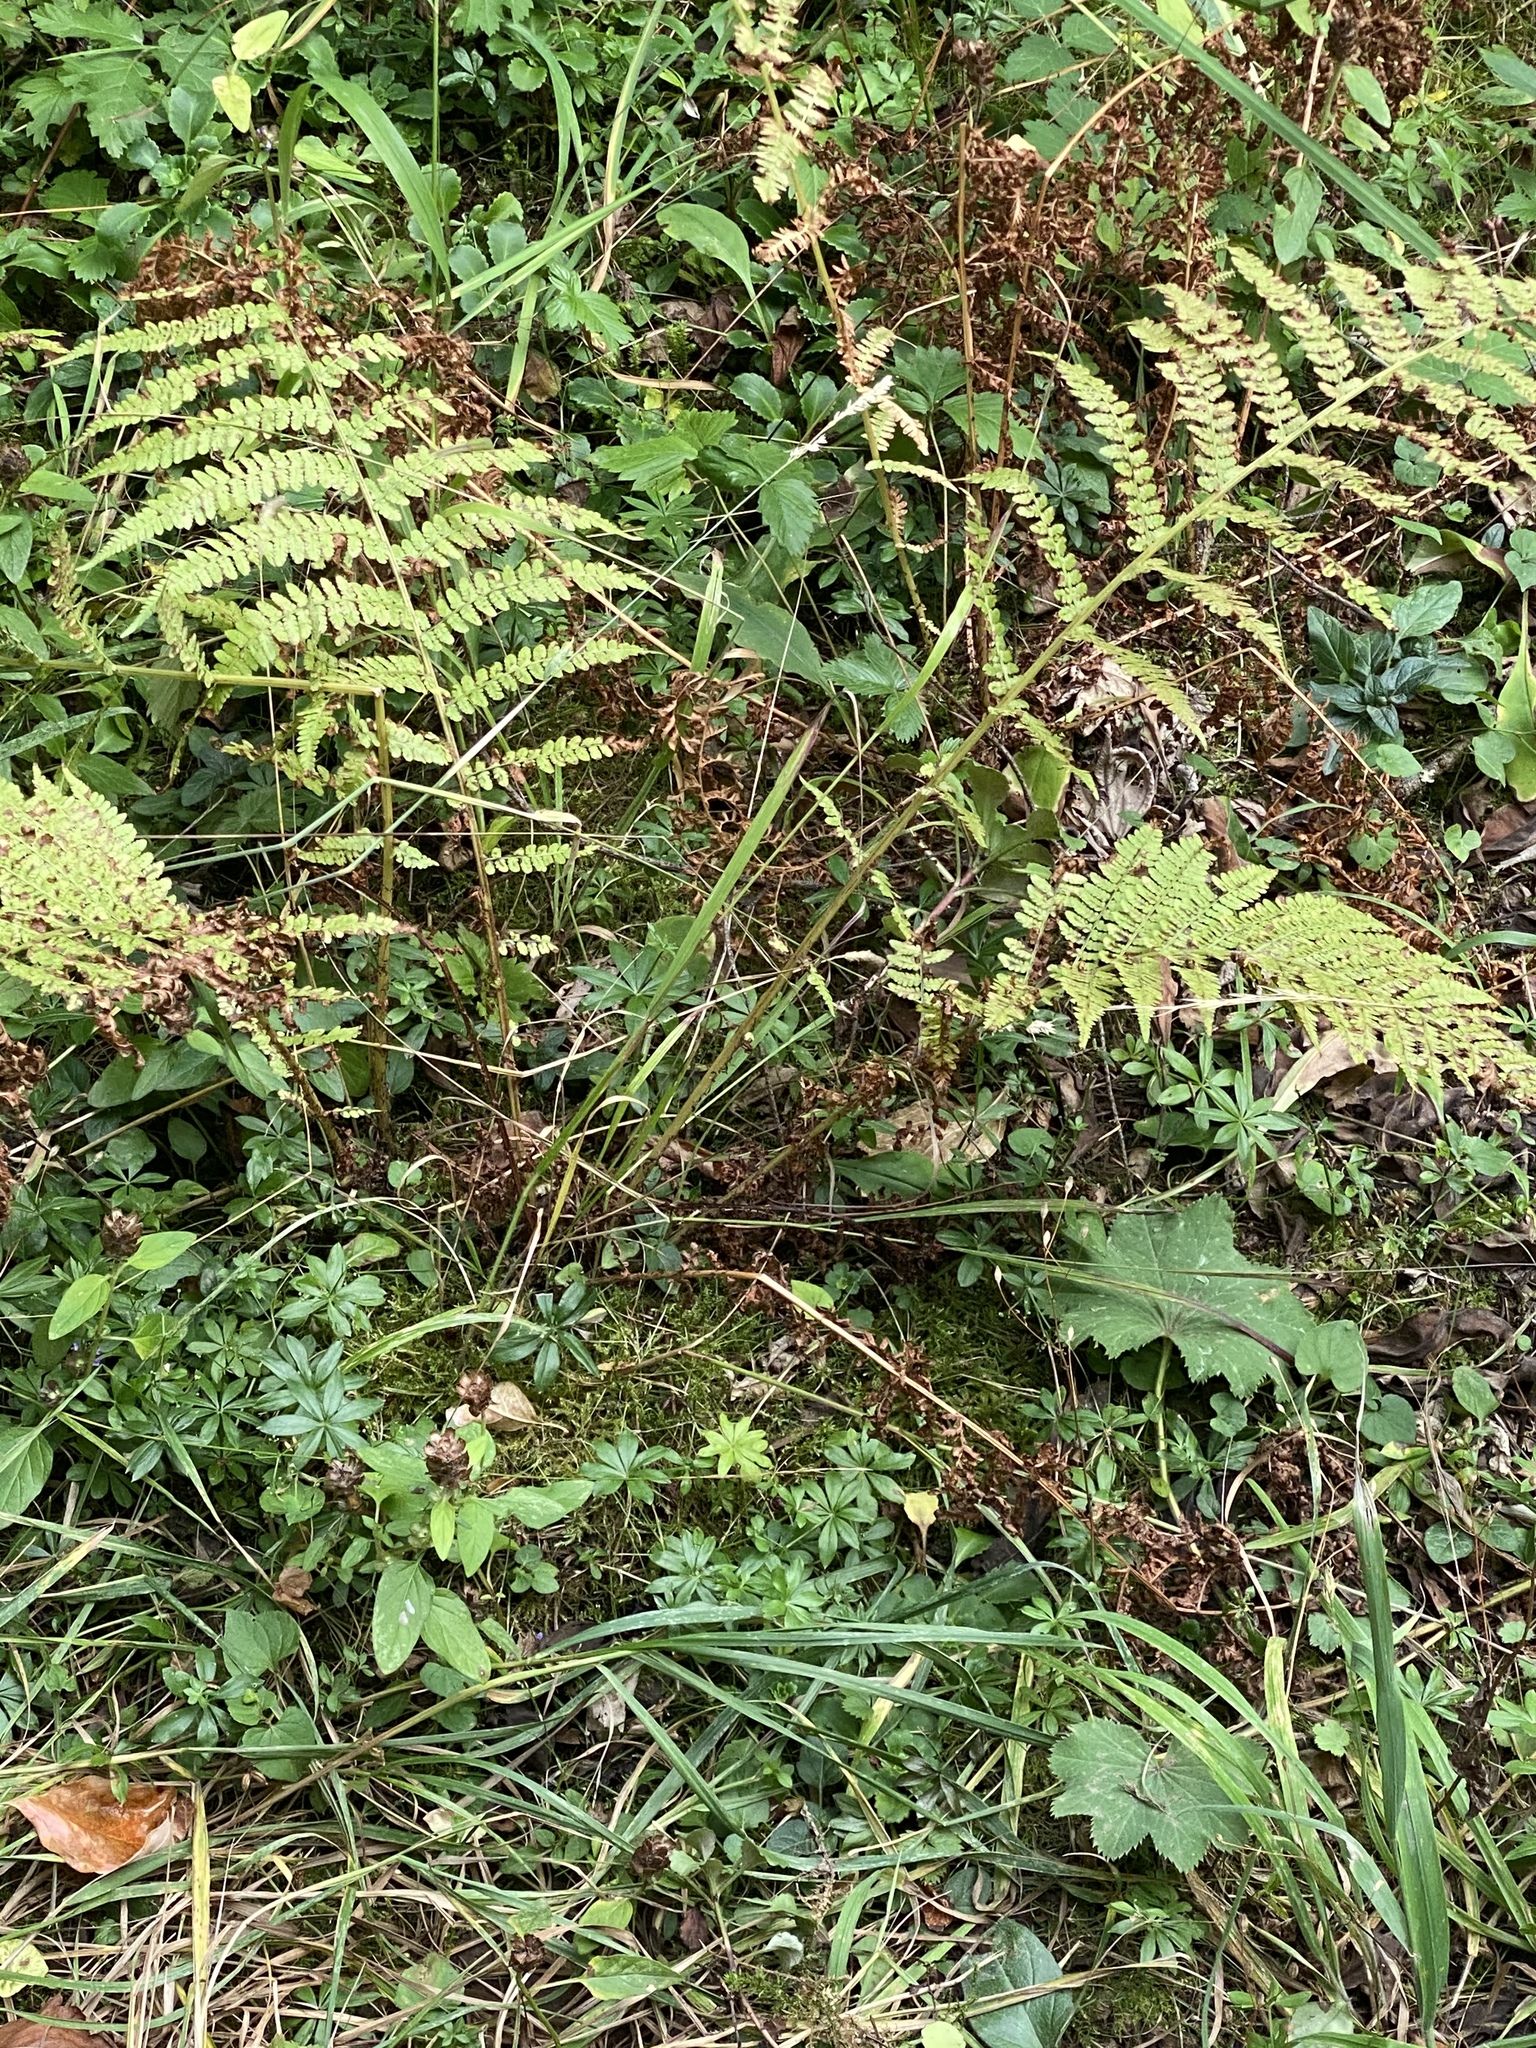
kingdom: Plantae
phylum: Tracheophyta
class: Polypodiopsida
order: Polypodiales
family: Athyriaceae
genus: Athyrium
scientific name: Athyrium filix-femina
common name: Lady fern
